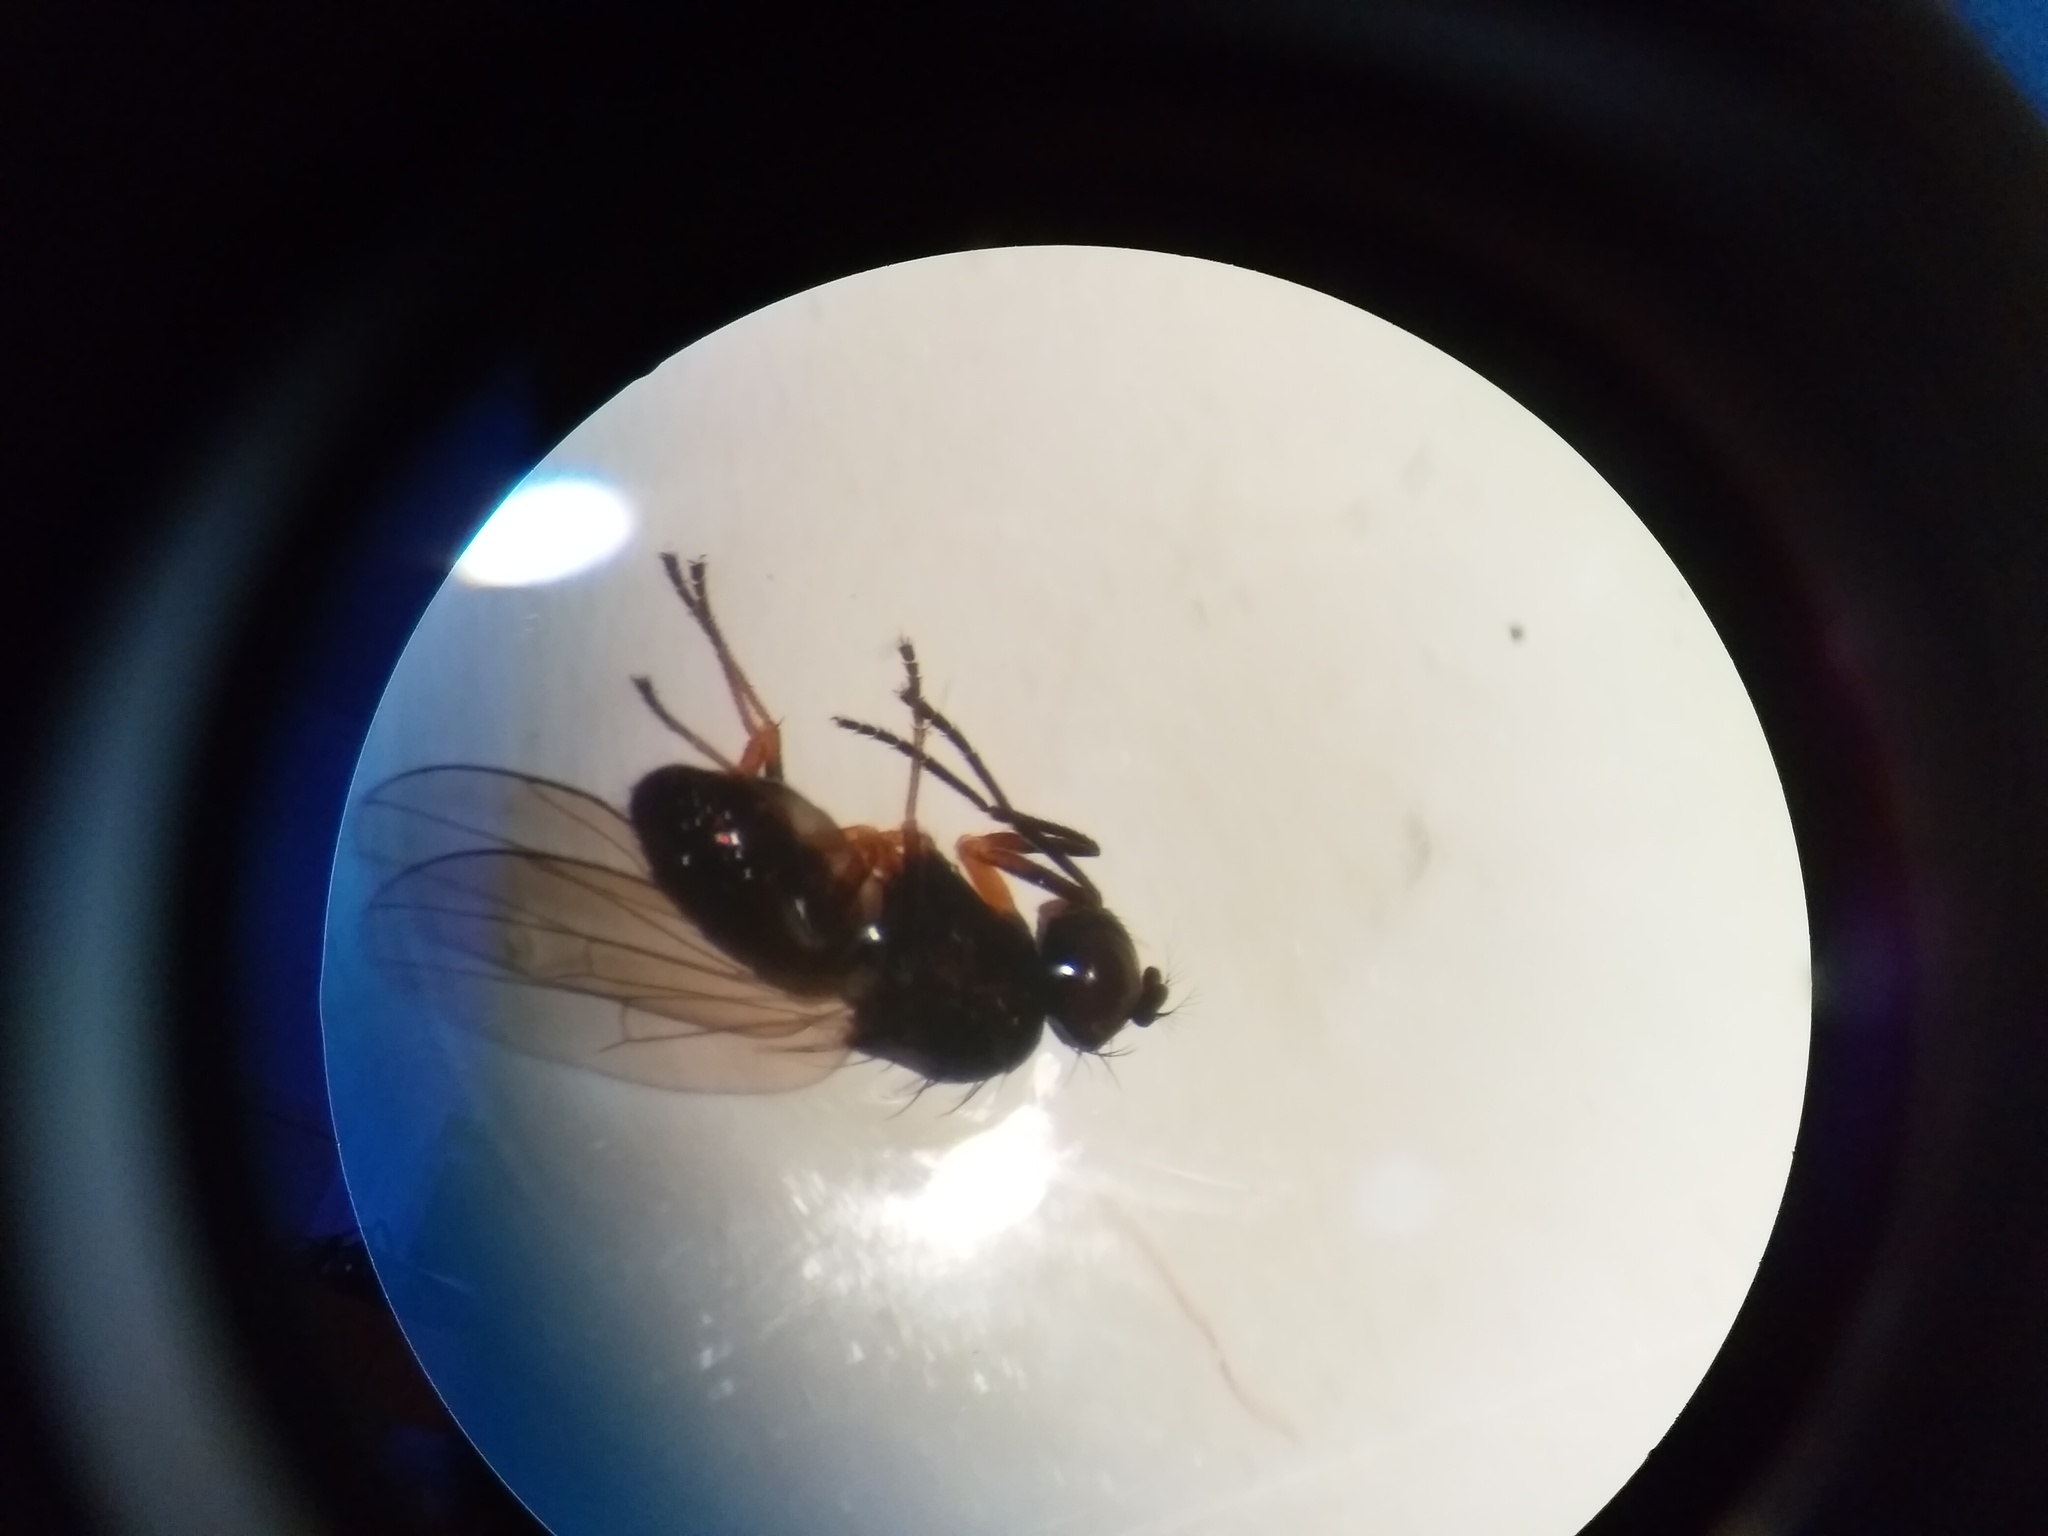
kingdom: Animalia
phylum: Arthropoda
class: Insecta
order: Diptera
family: Ephydridae
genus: Hydrellia
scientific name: Hydrellia tritici
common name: Shore fly
